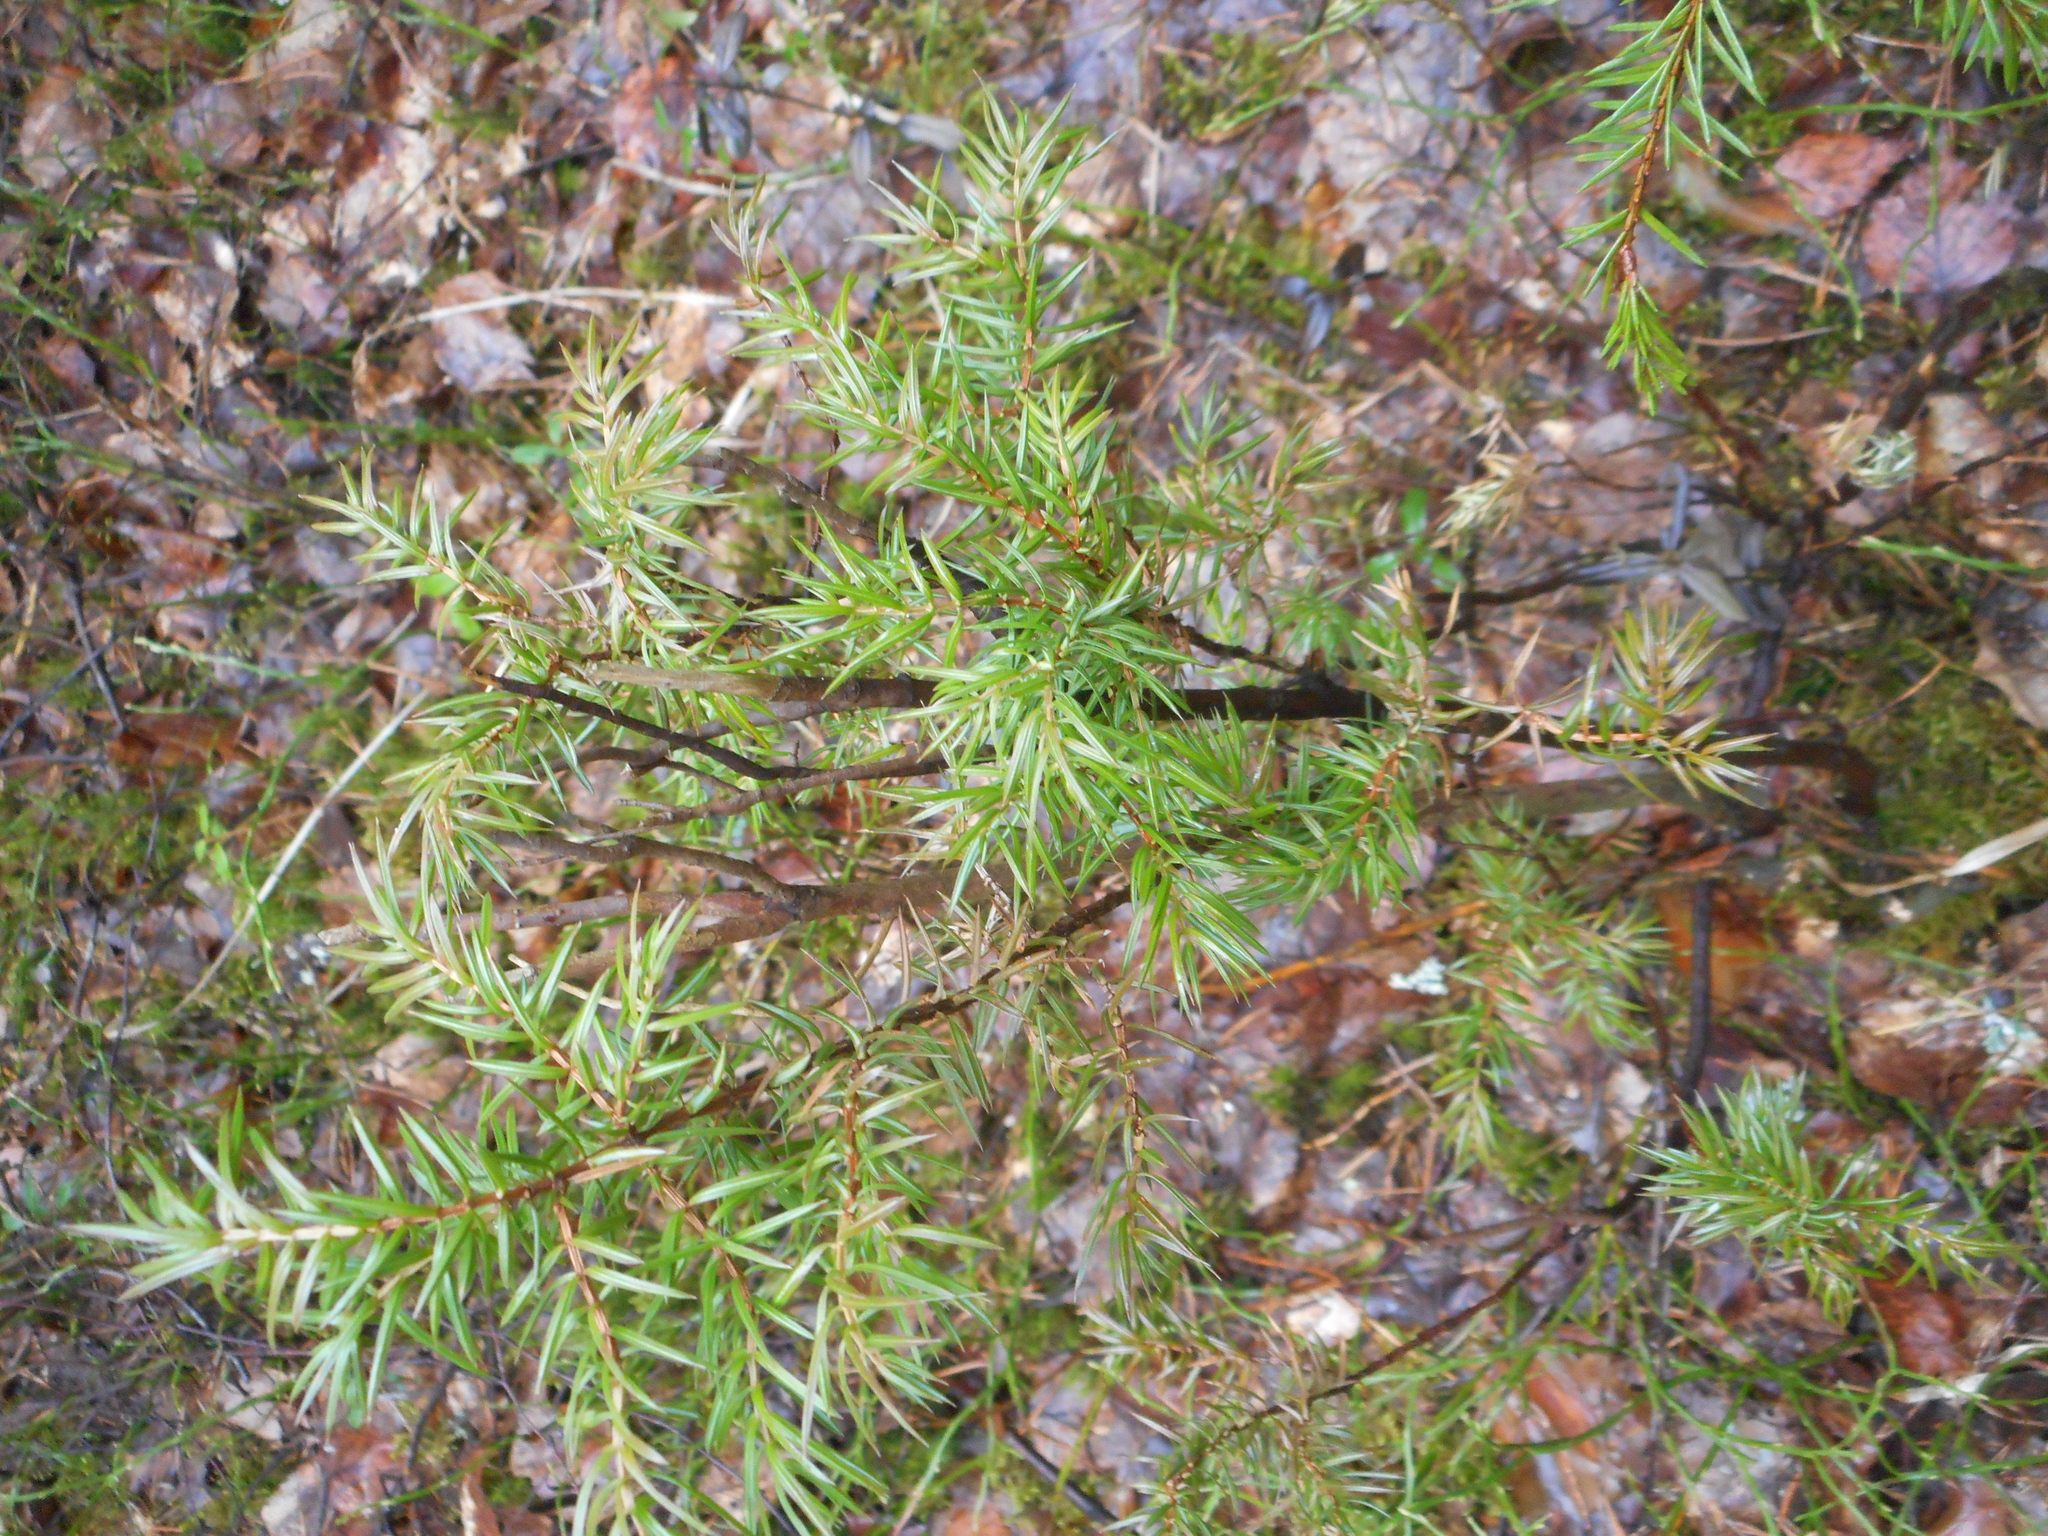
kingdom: Plantae
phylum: Tracheophyta
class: Pinopsida
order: Pinales
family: Cupressaceae
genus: Juniperus
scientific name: Juniperus communis
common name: Common juniper
